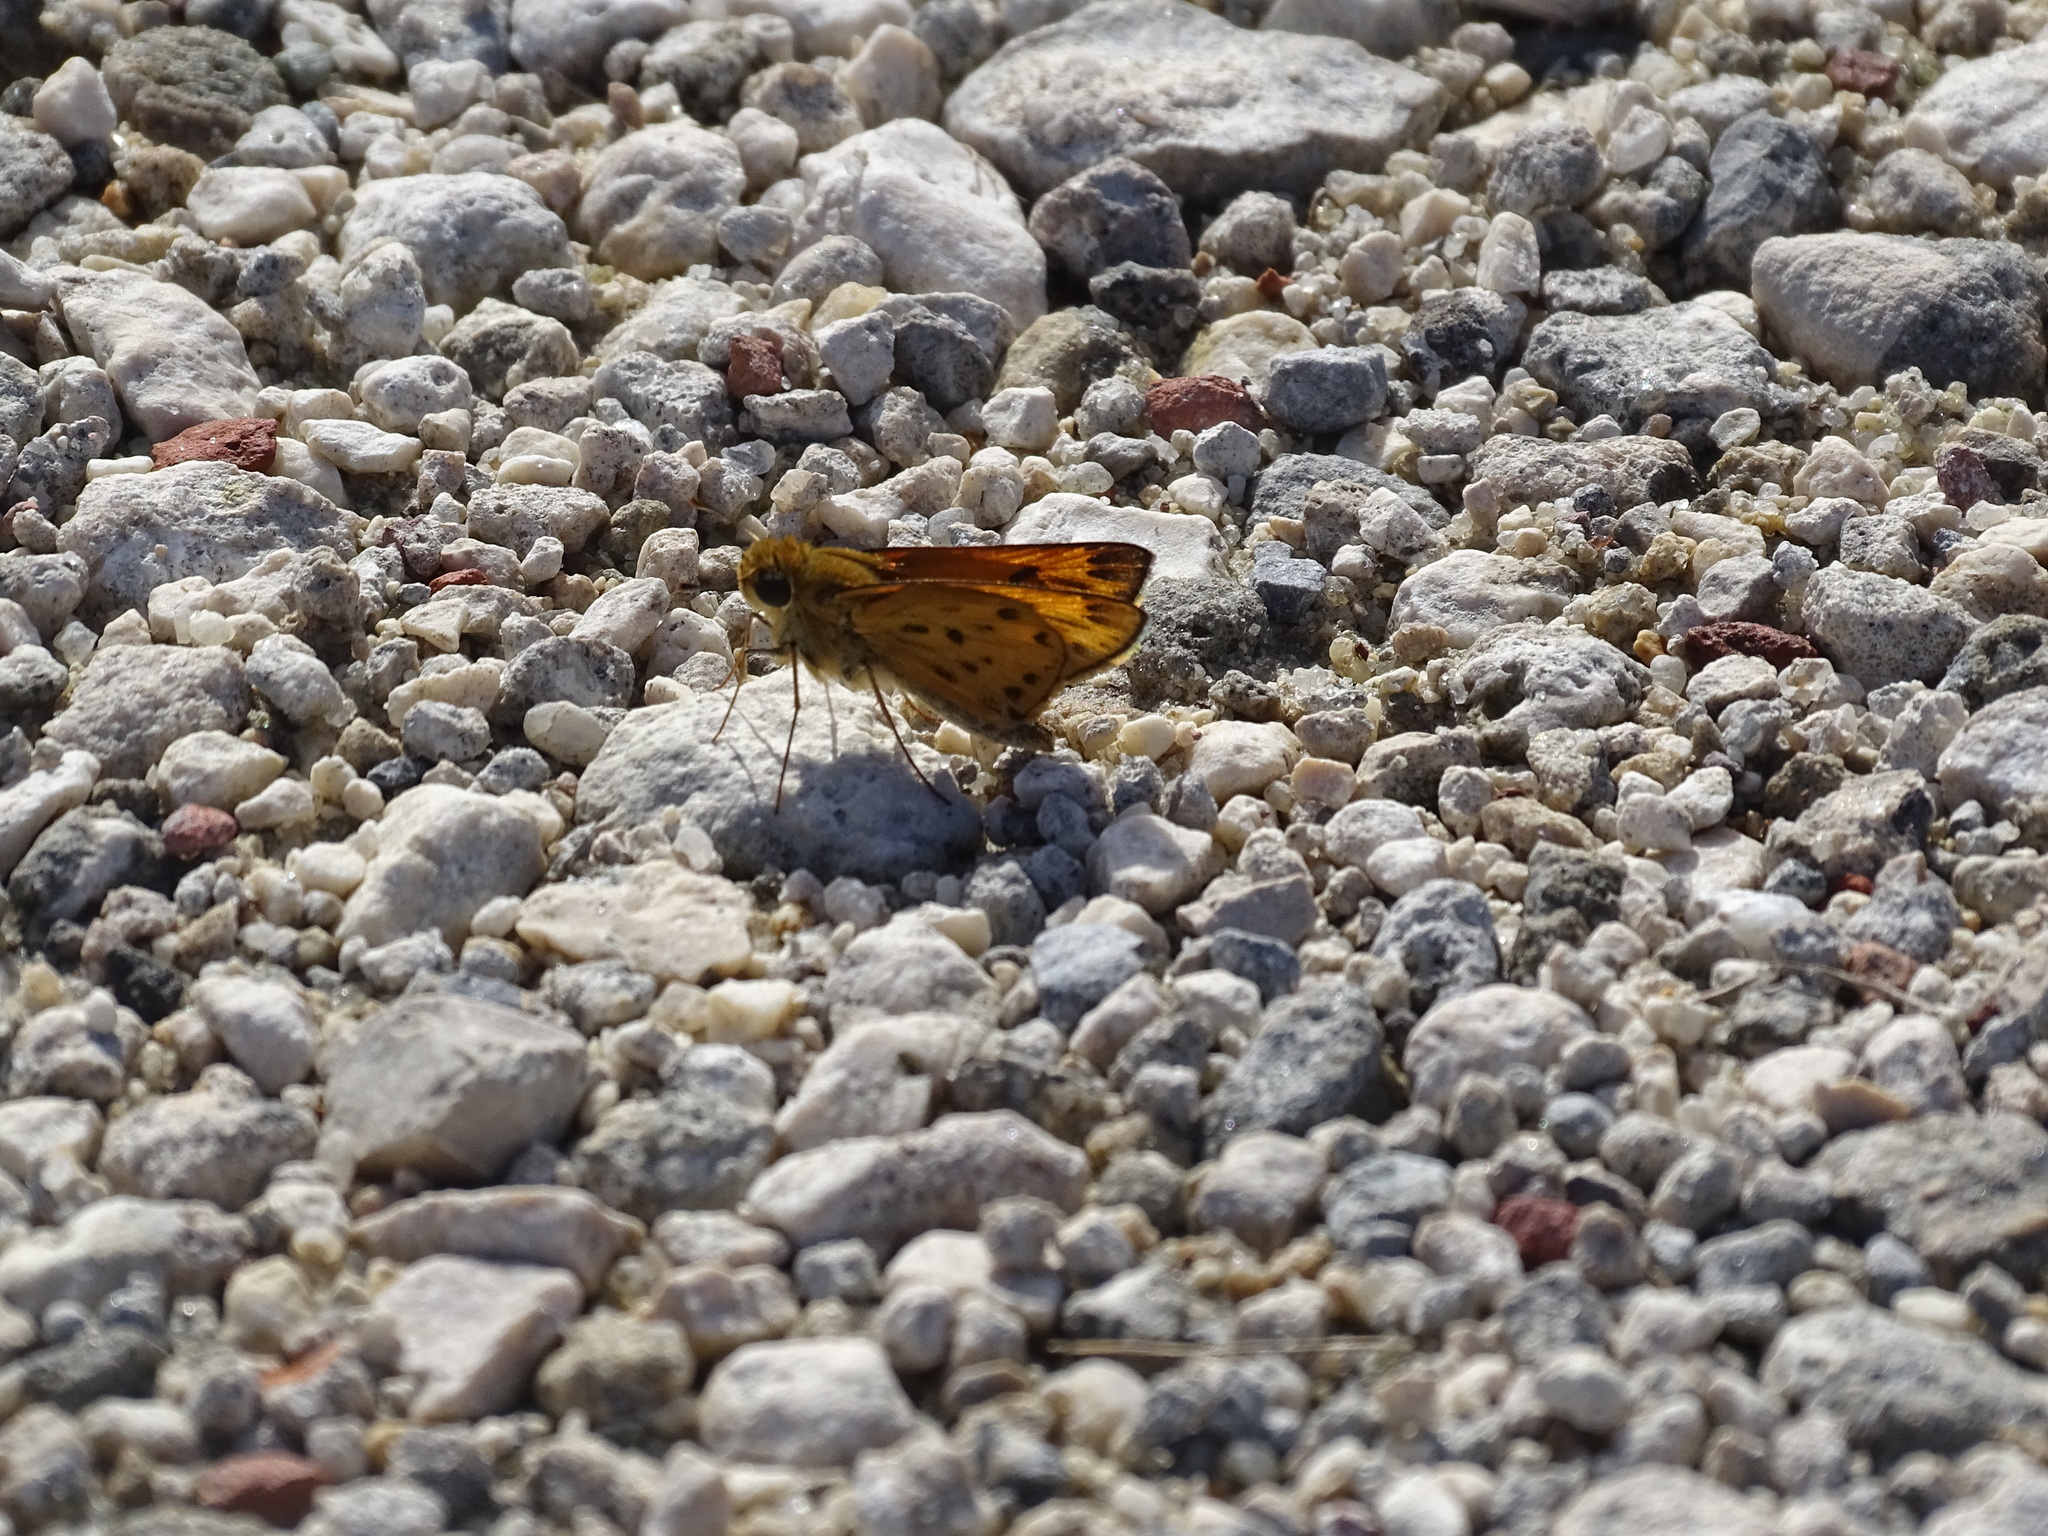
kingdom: Animalia
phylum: Arthropoda
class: Insecta
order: Lepidoptera
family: Hesperiidae
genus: Hylephila
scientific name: Hylephila phyleus
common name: Fiery skipper
